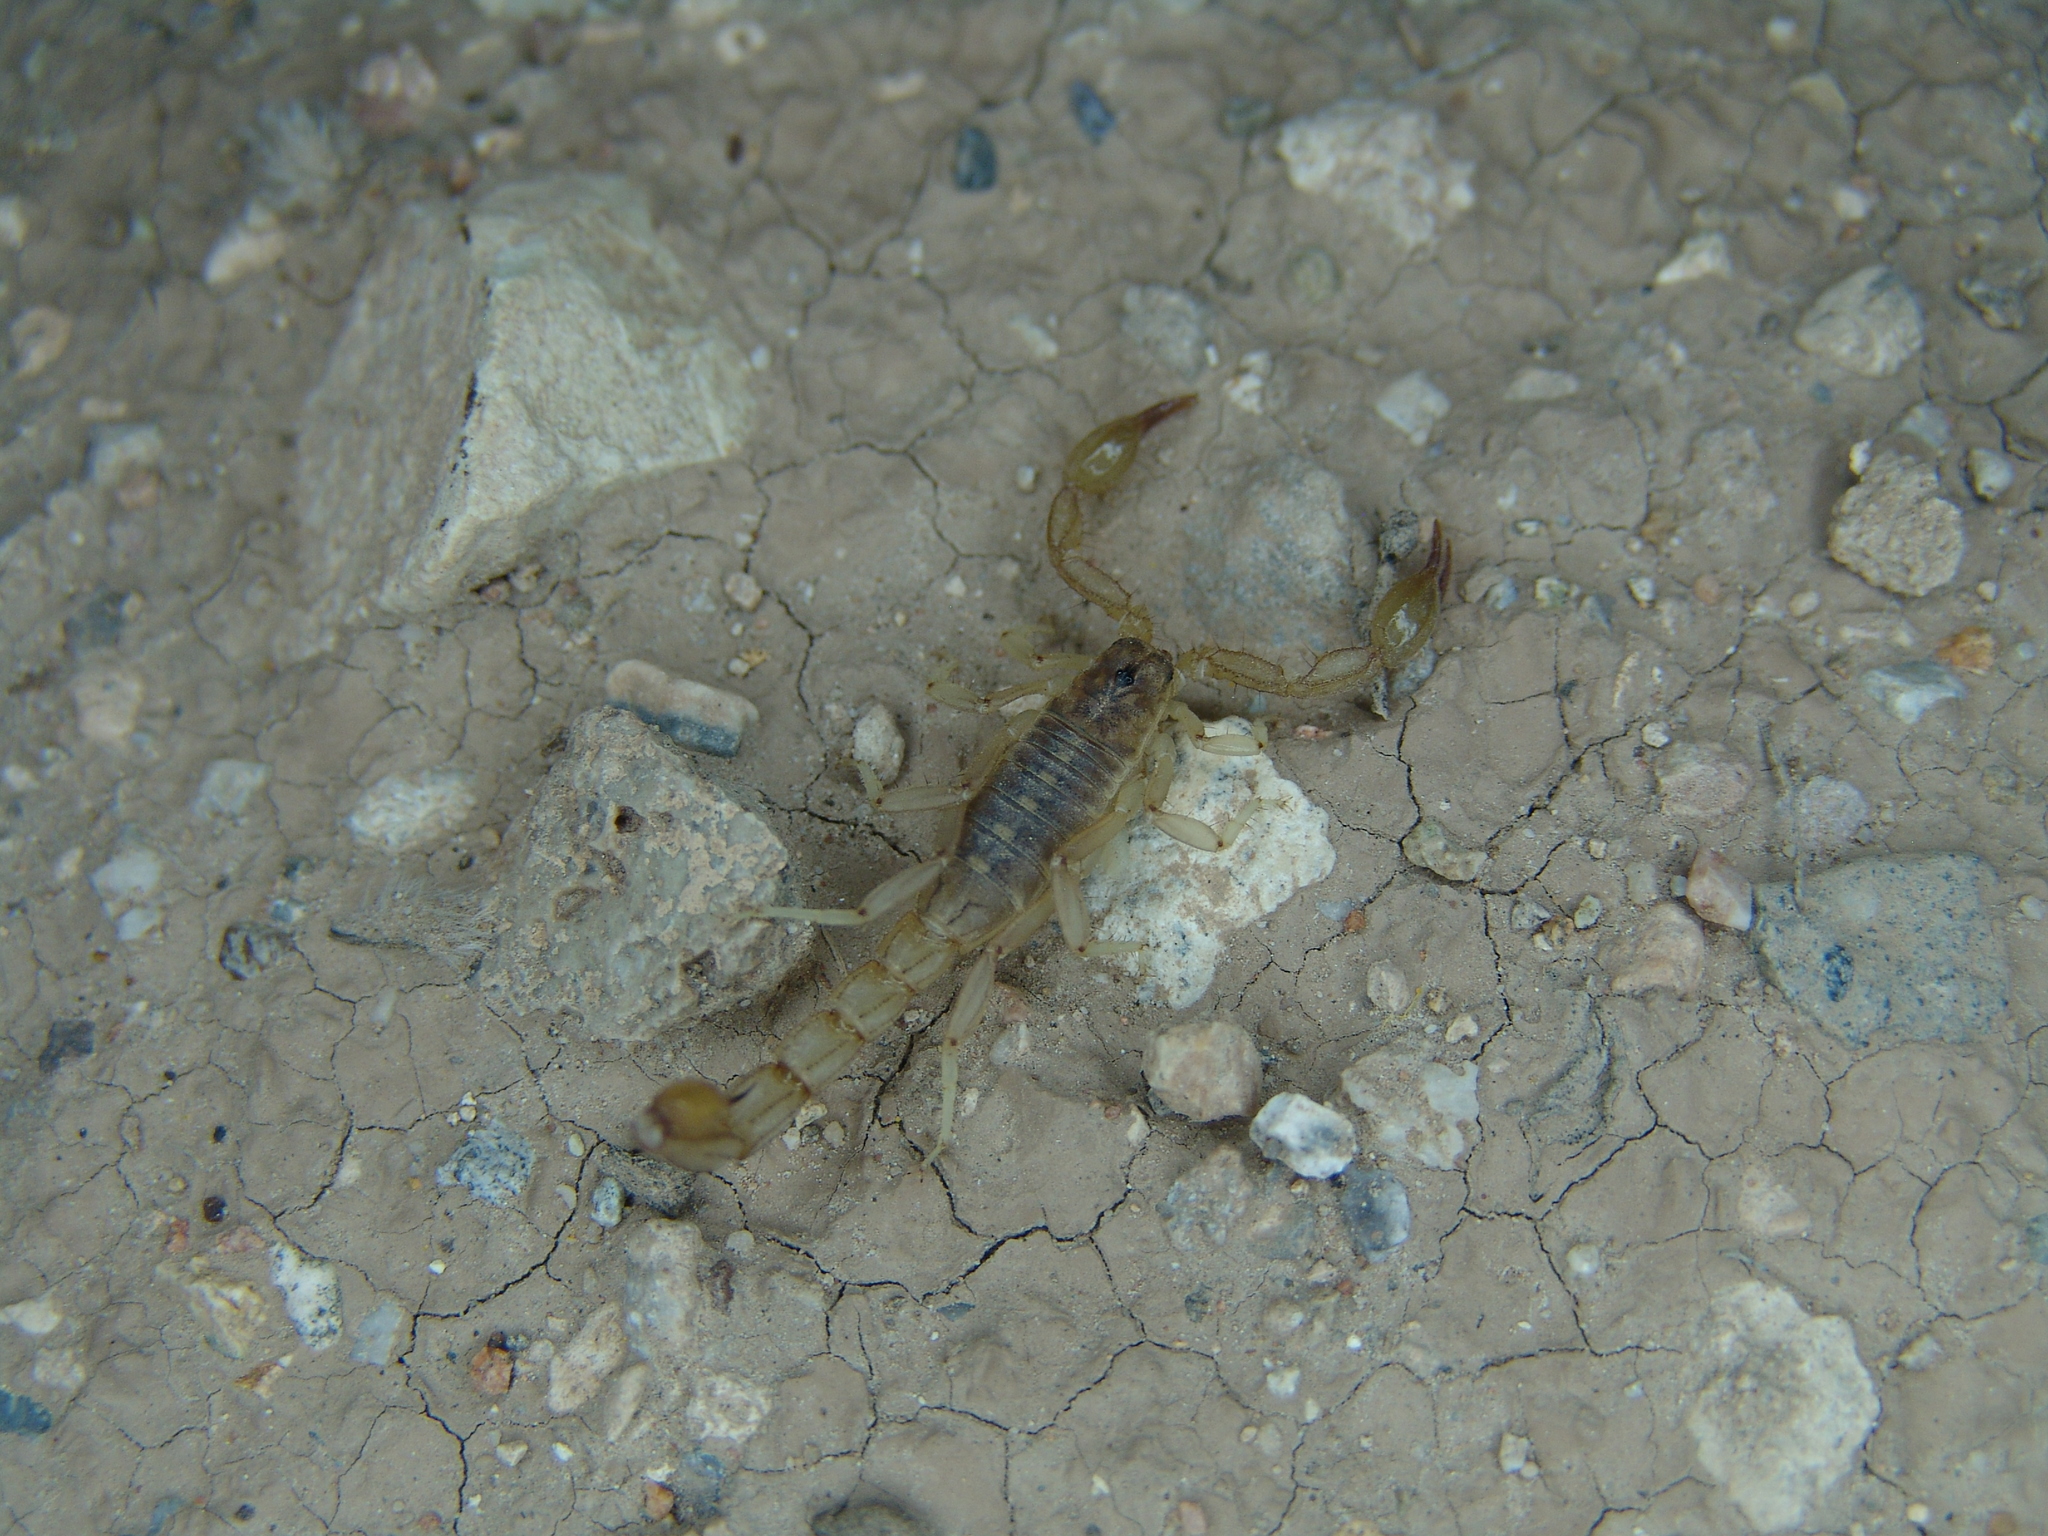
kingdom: Animalia
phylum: Arthropoda
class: Arachnida
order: Scorpiones
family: Vaejovidae
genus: Chihuahuanus
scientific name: Chihuahuanus coahuilae
